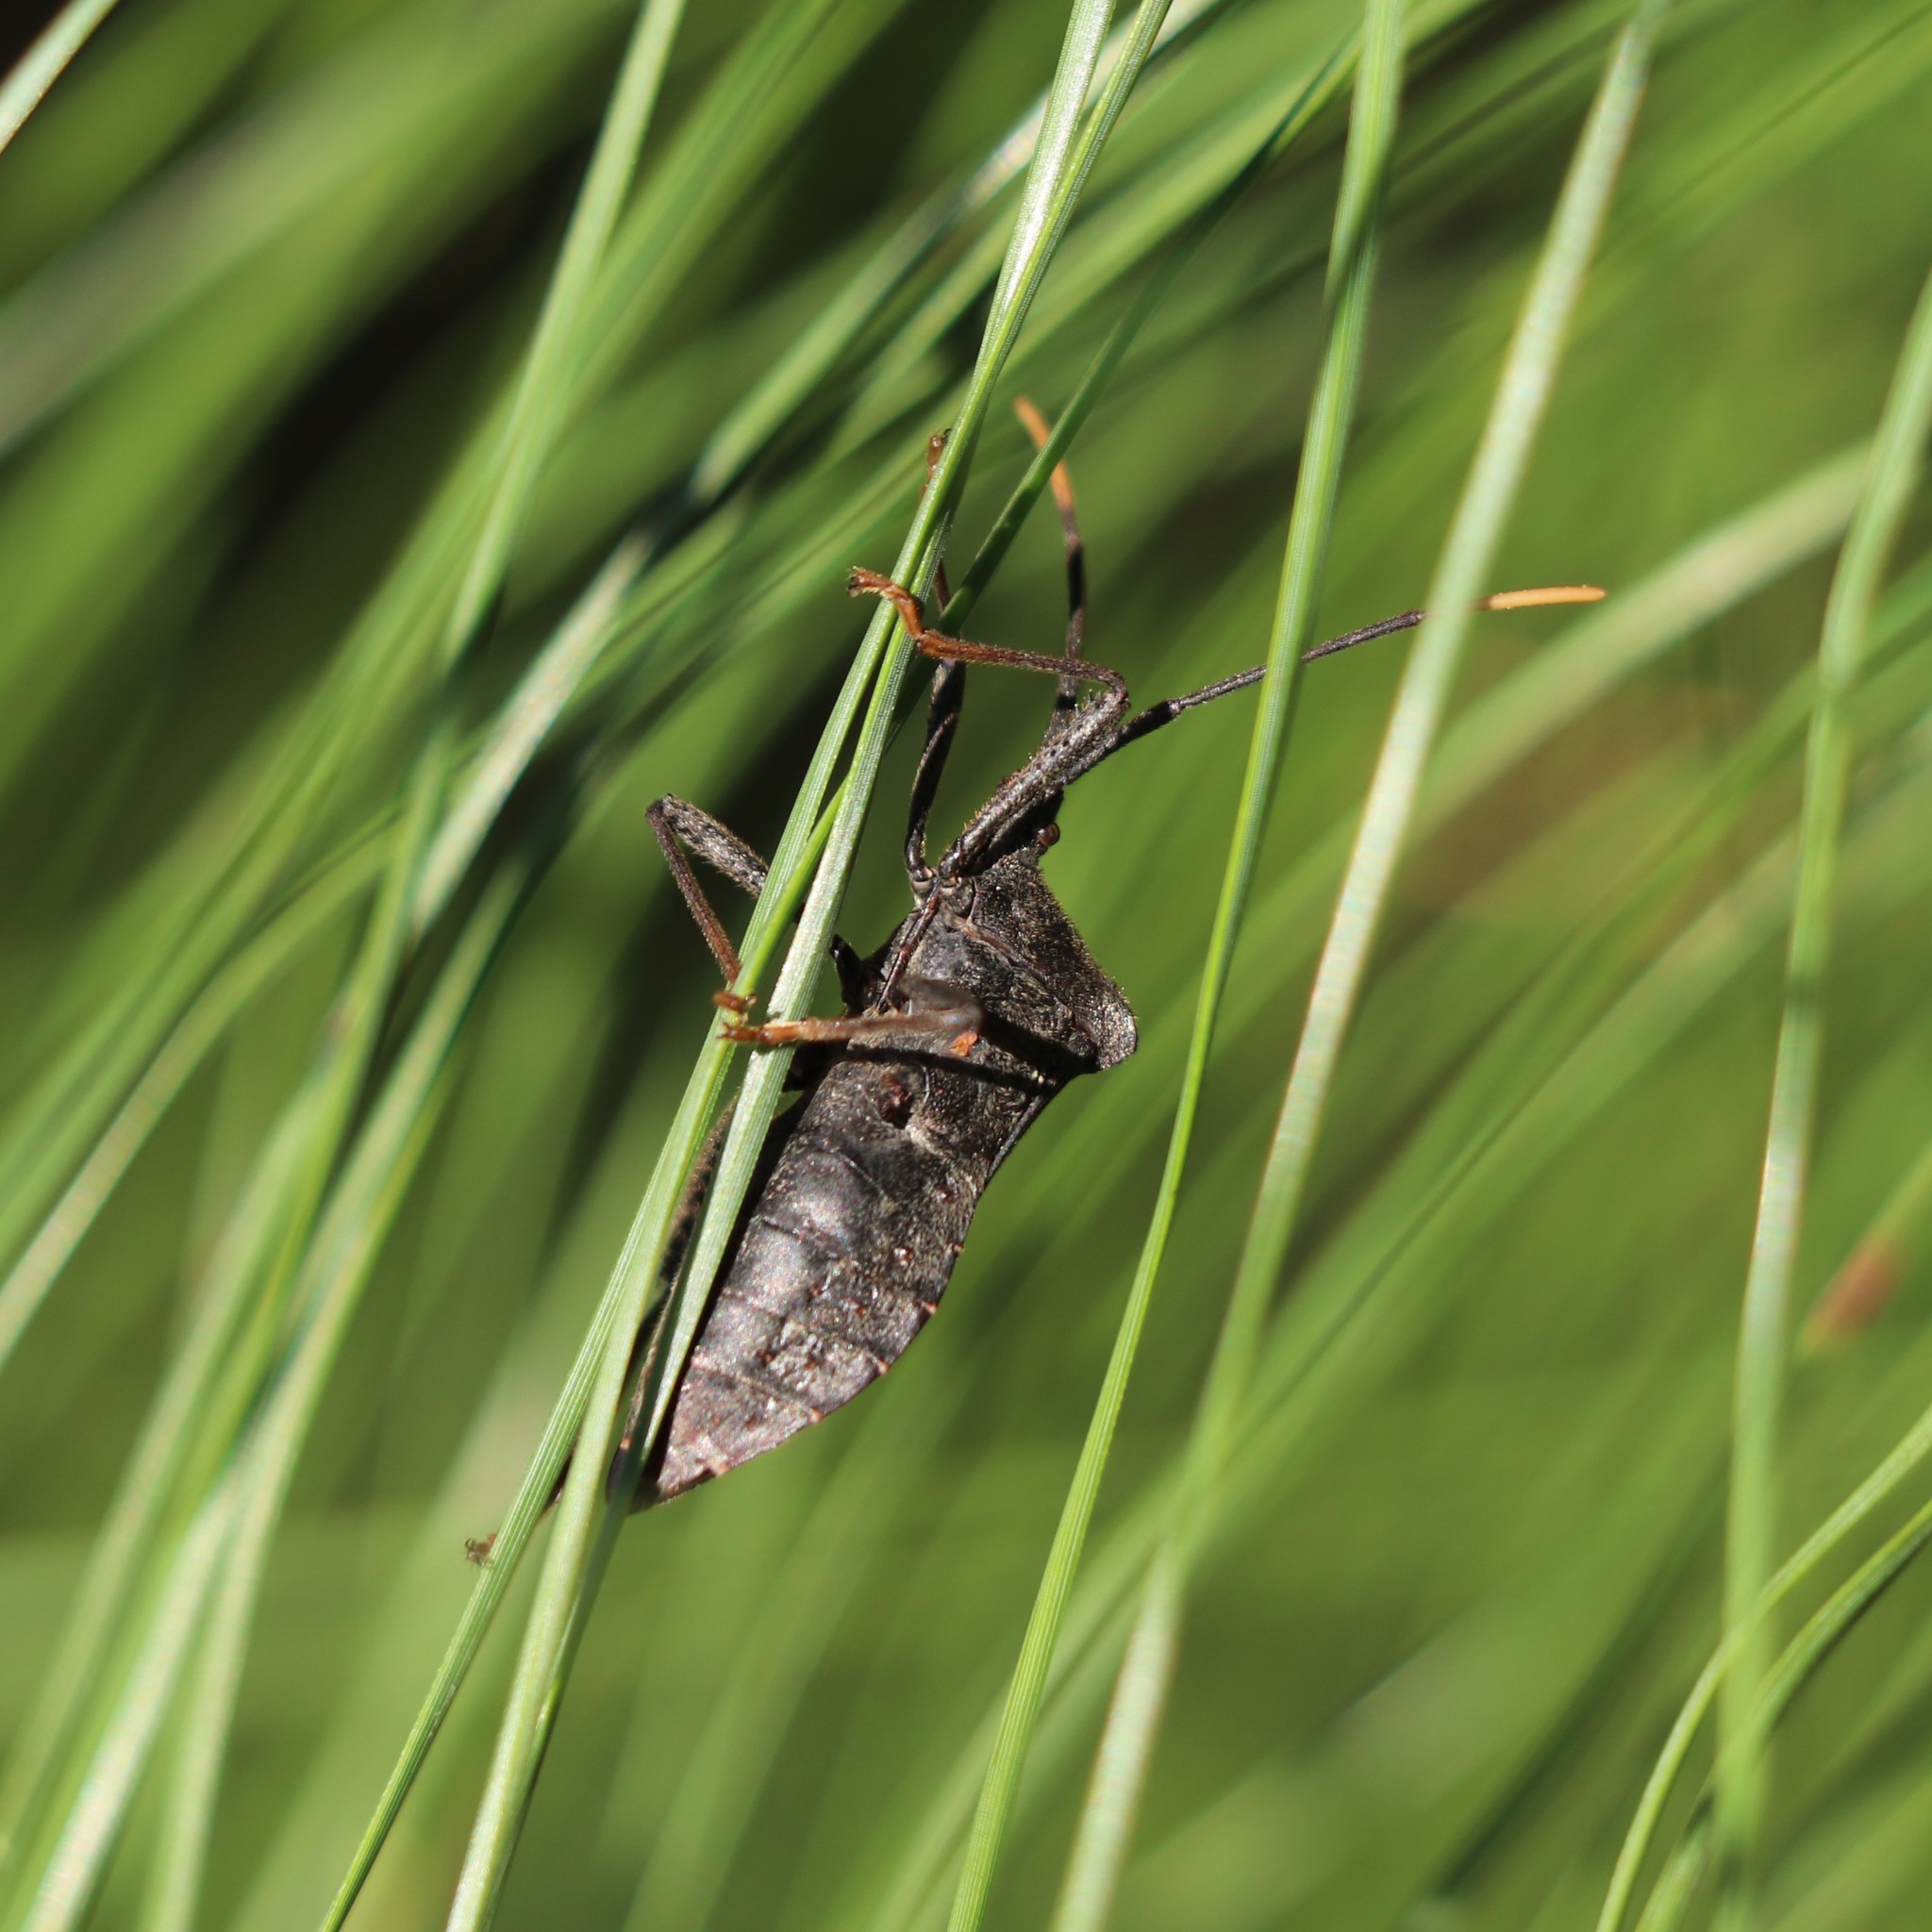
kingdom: Animalia
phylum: Arthropoda
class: Insecta
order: Hemiptera
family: Coreidae
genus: Acanthocephala
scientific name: Acanthocephala terminalis
